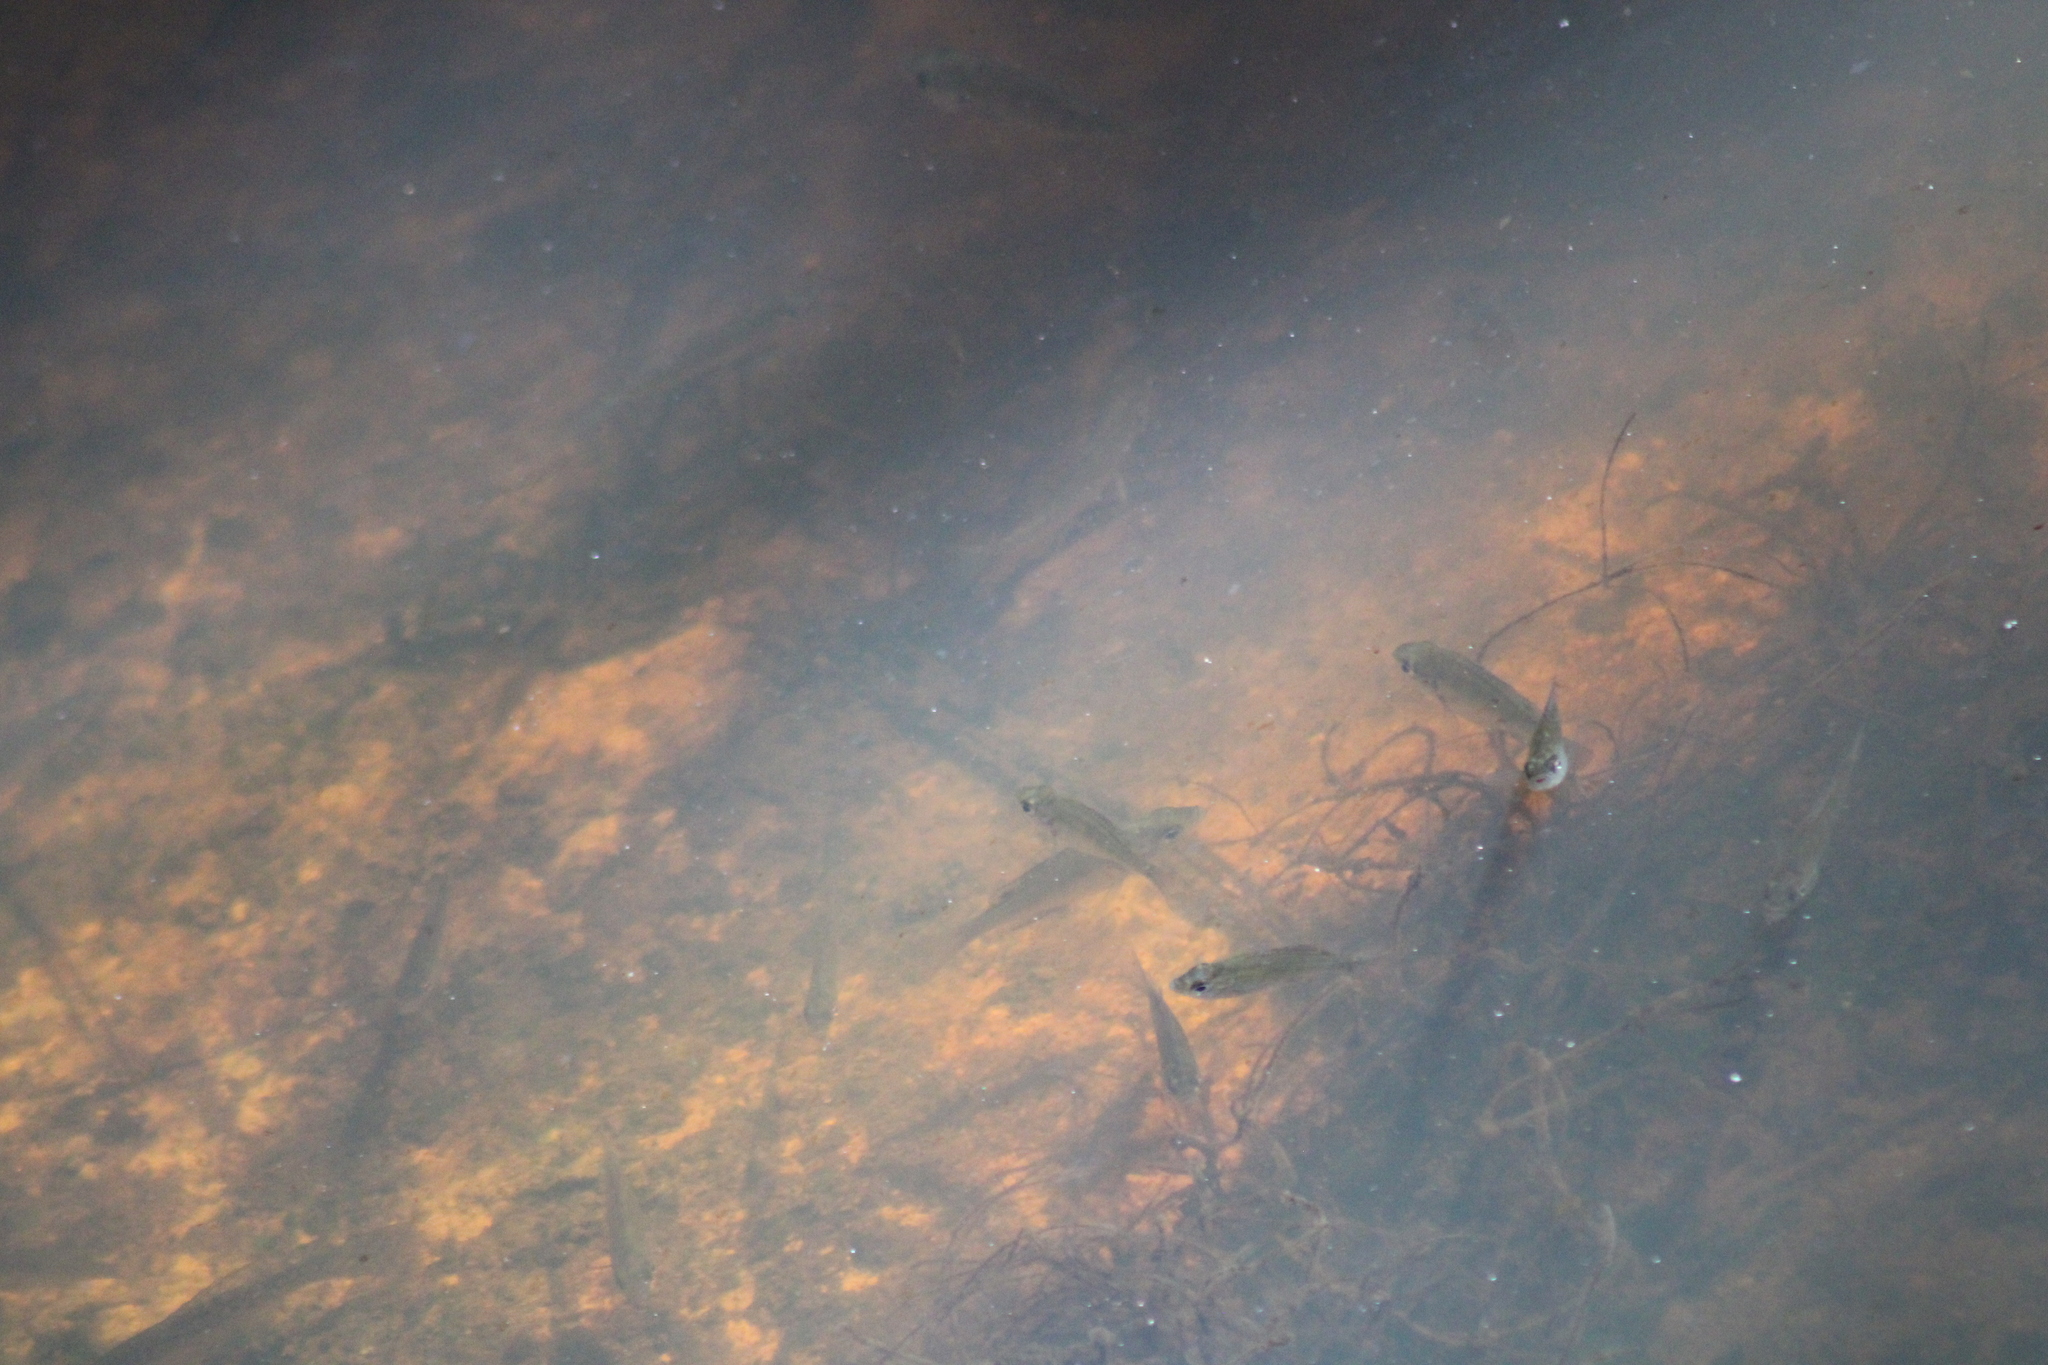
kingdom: Animalia
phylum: Chordata
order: Perciformes
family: Centrarchidae
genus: Lepomis
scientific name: Lepomis macrochirus
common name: Bluegill
